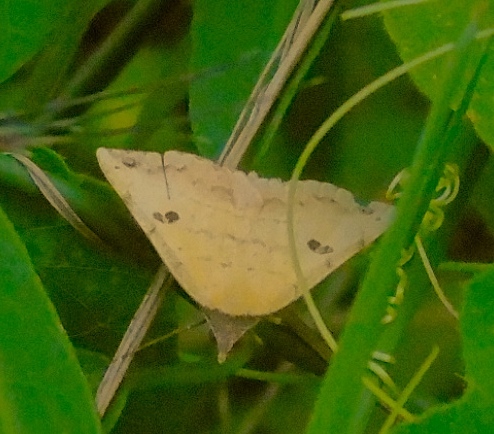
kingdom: Animalia
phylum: Arthropoda
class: Insecta
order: Lepidoptera
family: Erebidae
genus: Hemeroplanis
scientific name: Hemeroplanis scopulepes
